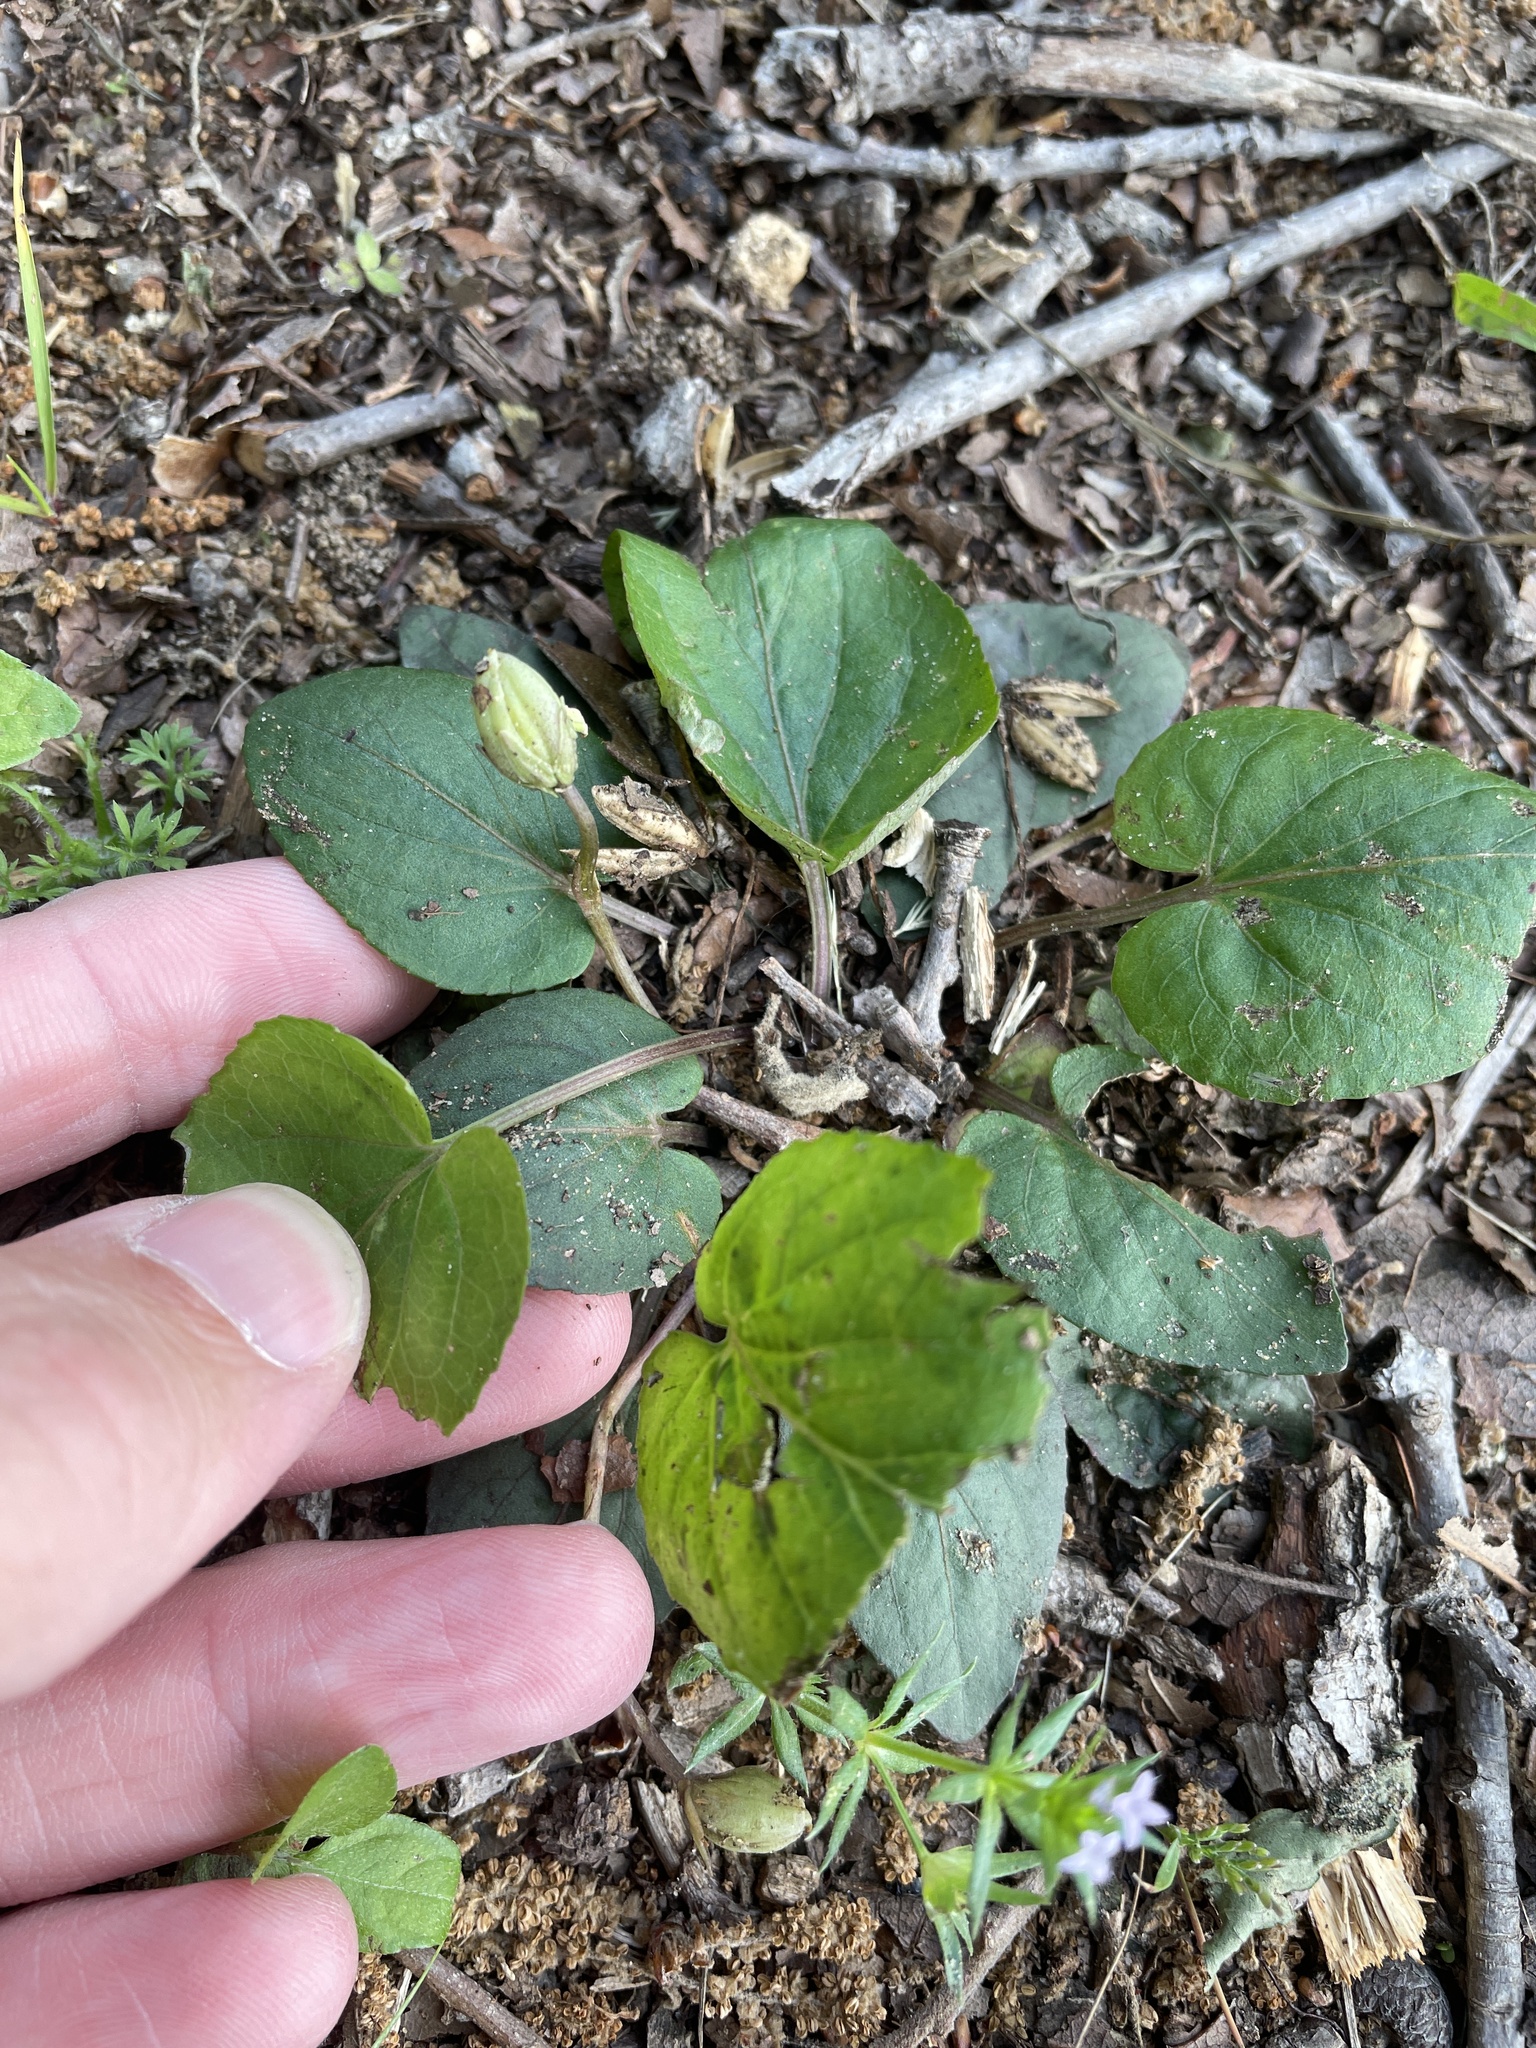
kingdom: Plantae
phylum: Tracheophyta
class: Magnoliopsida
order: Malpighiales
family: Violaceae
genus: Viola
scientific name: Viola villosa
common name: Carolina violet
